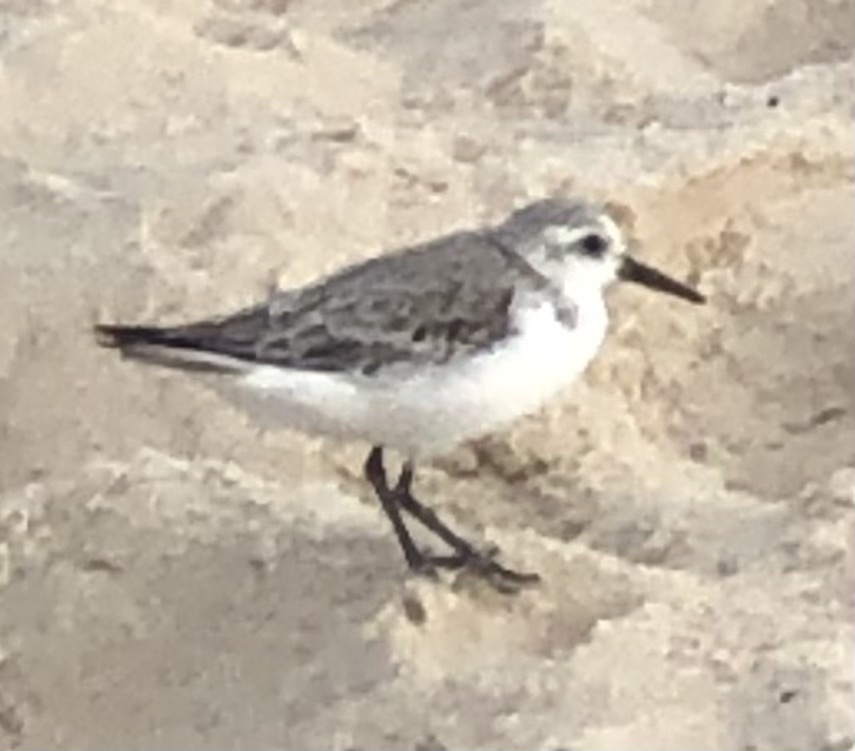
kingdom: Animalia
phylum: Chordata
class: Aves
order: Charadriiformes
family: Scolopacidae
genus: Calidris
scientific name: Calidris alba
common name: Sanderling
